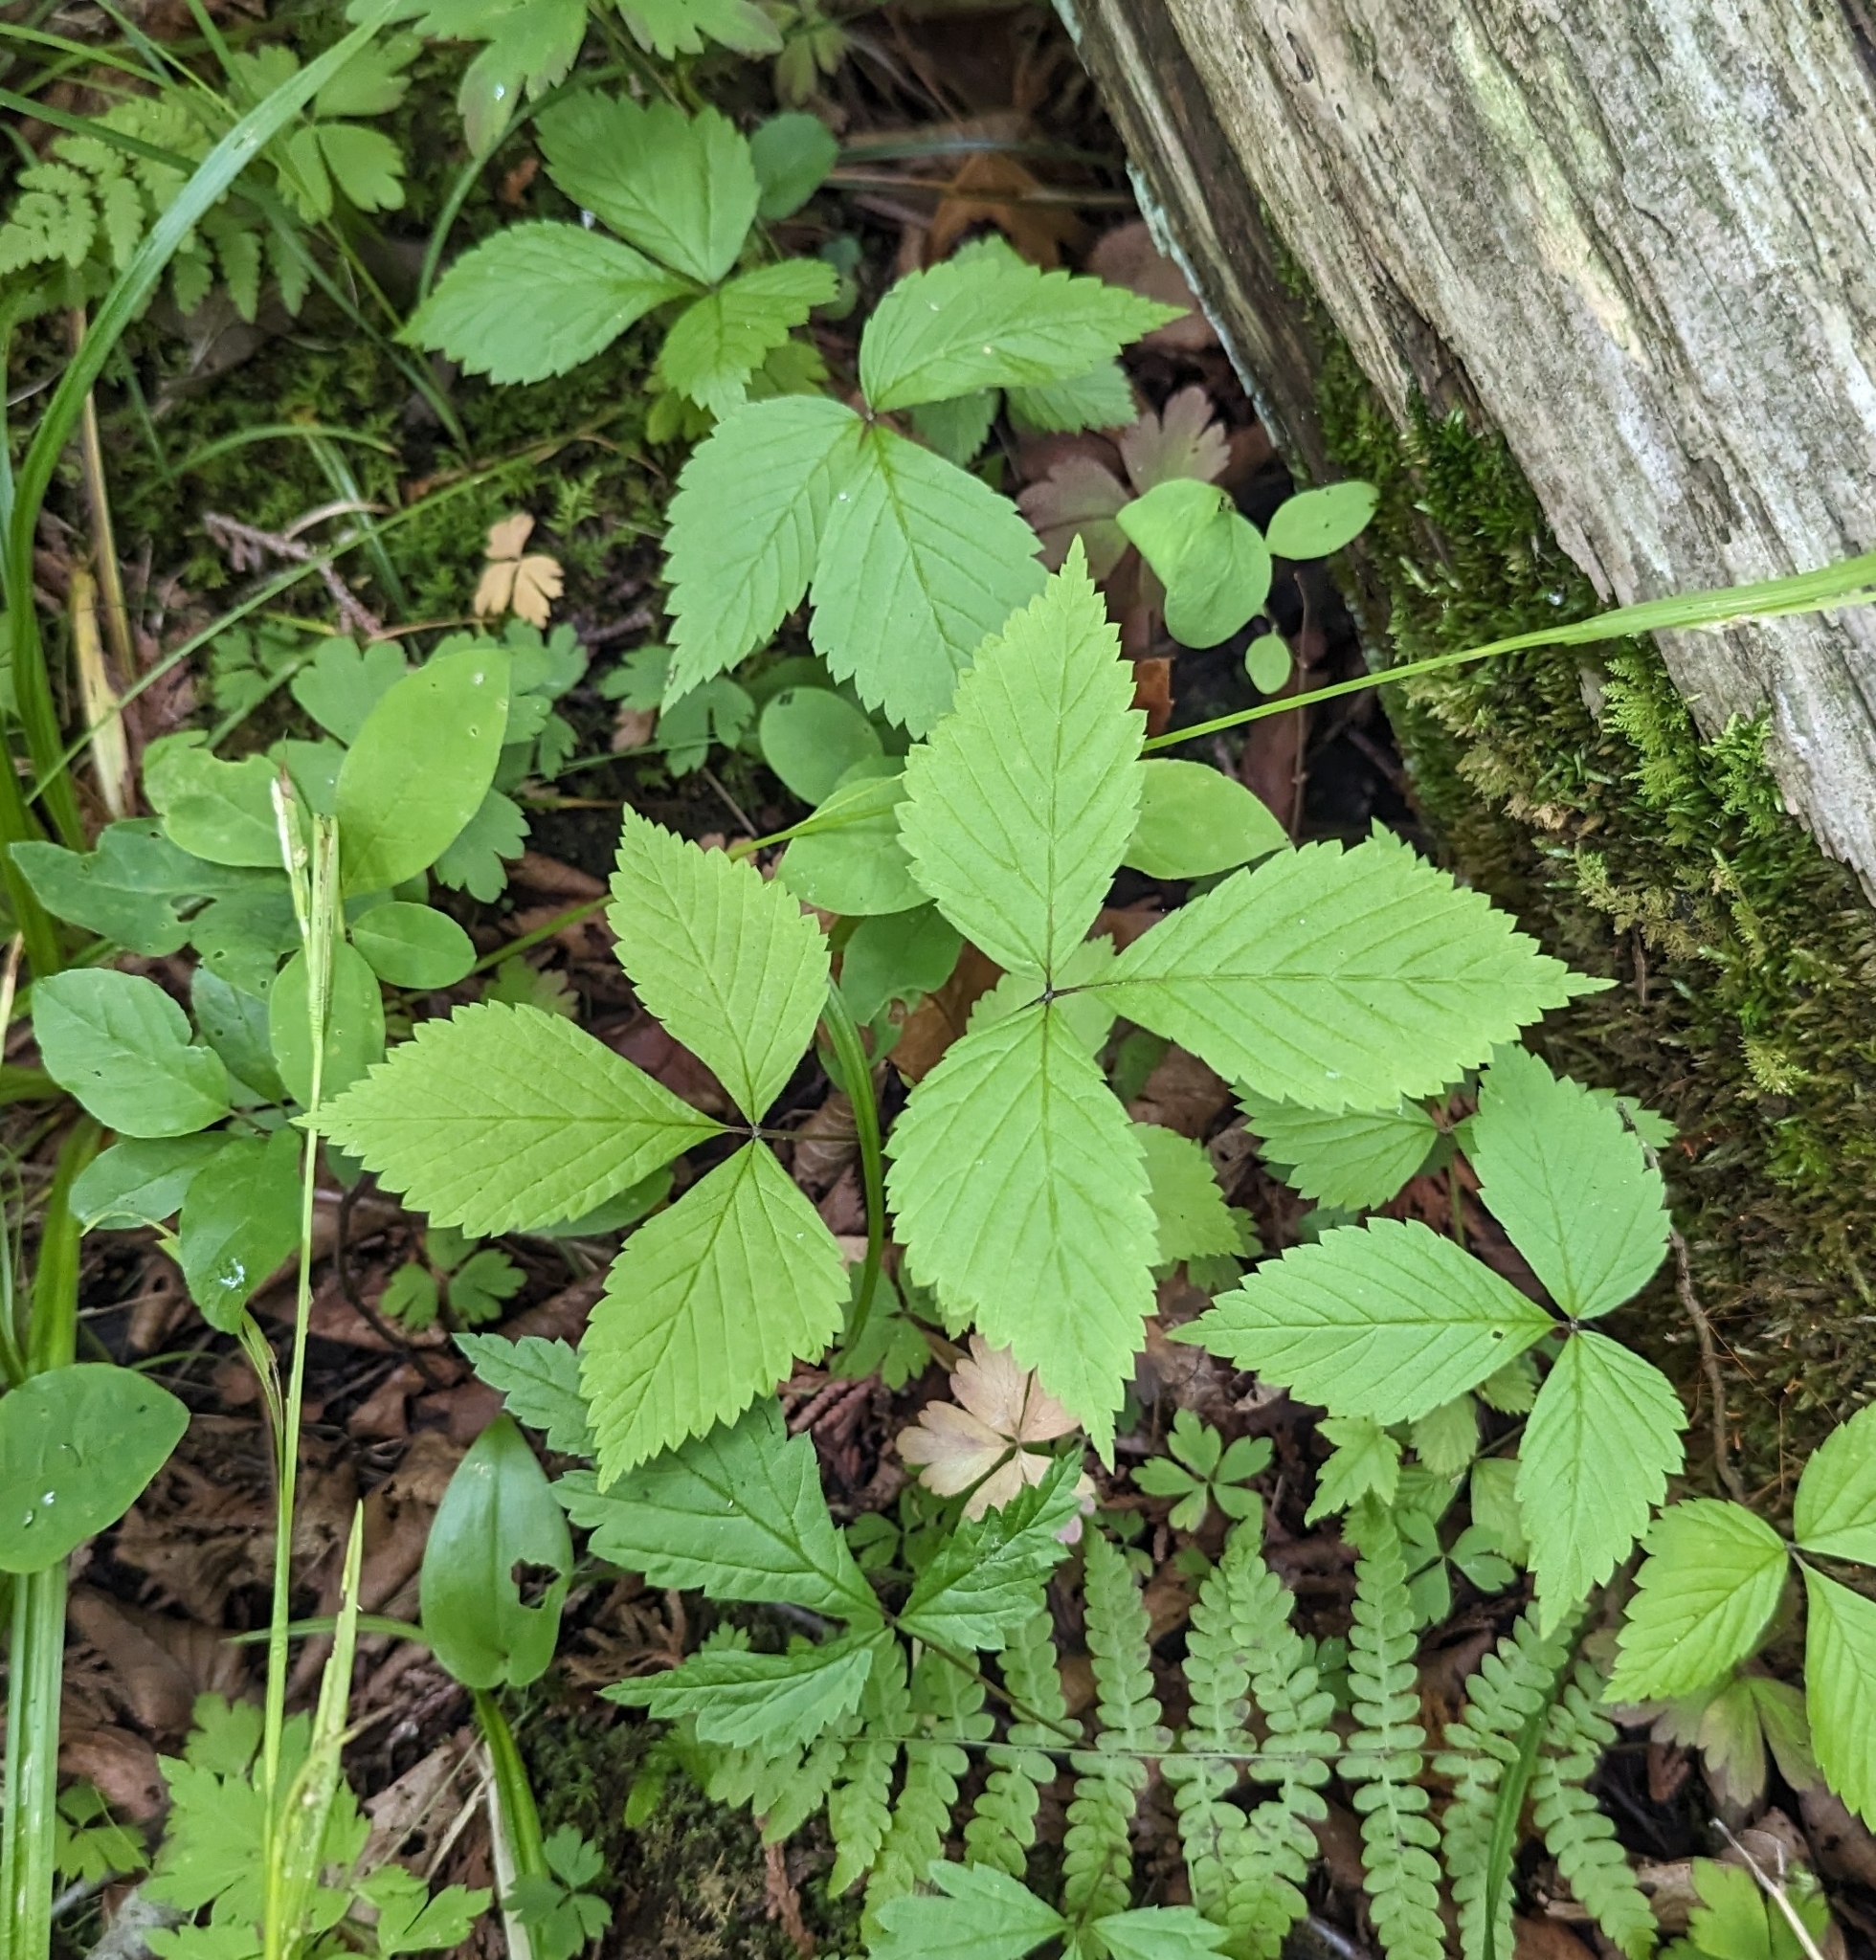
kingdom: Plantae
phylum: Tracheophyta
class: Magnoliopsida
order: Rosales
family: Rosaceae
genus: Rubus
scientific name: Rubus pubescens
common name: Dwarf raspberry
